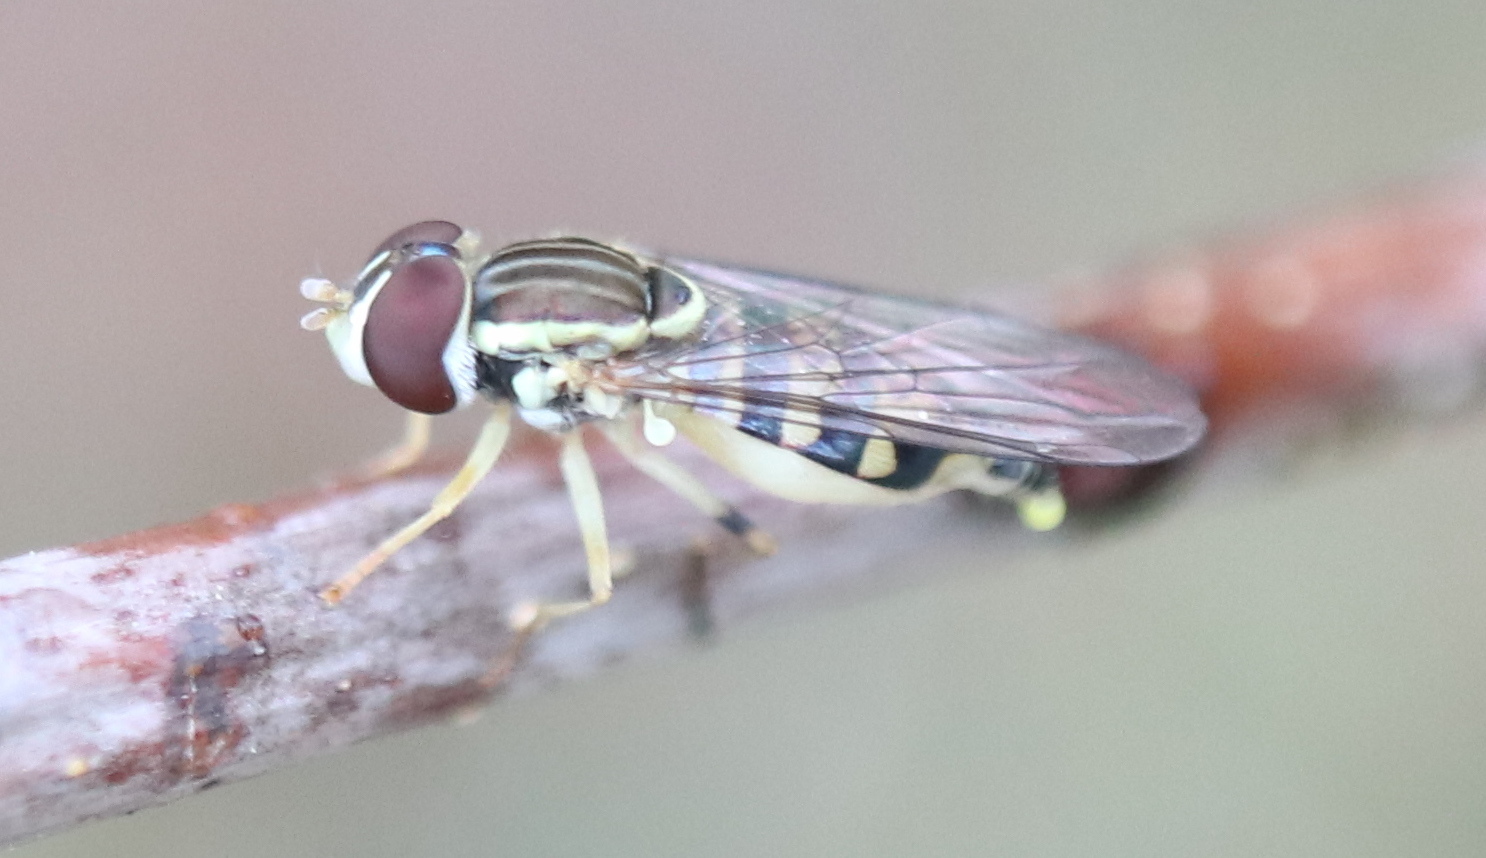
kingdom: Animalia
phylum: Arthropoda
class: Insecta
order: Diptera
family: Syrphidae
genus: Toxomerus
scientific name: Toxomerus geminatus
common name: Eastern calligrapher
